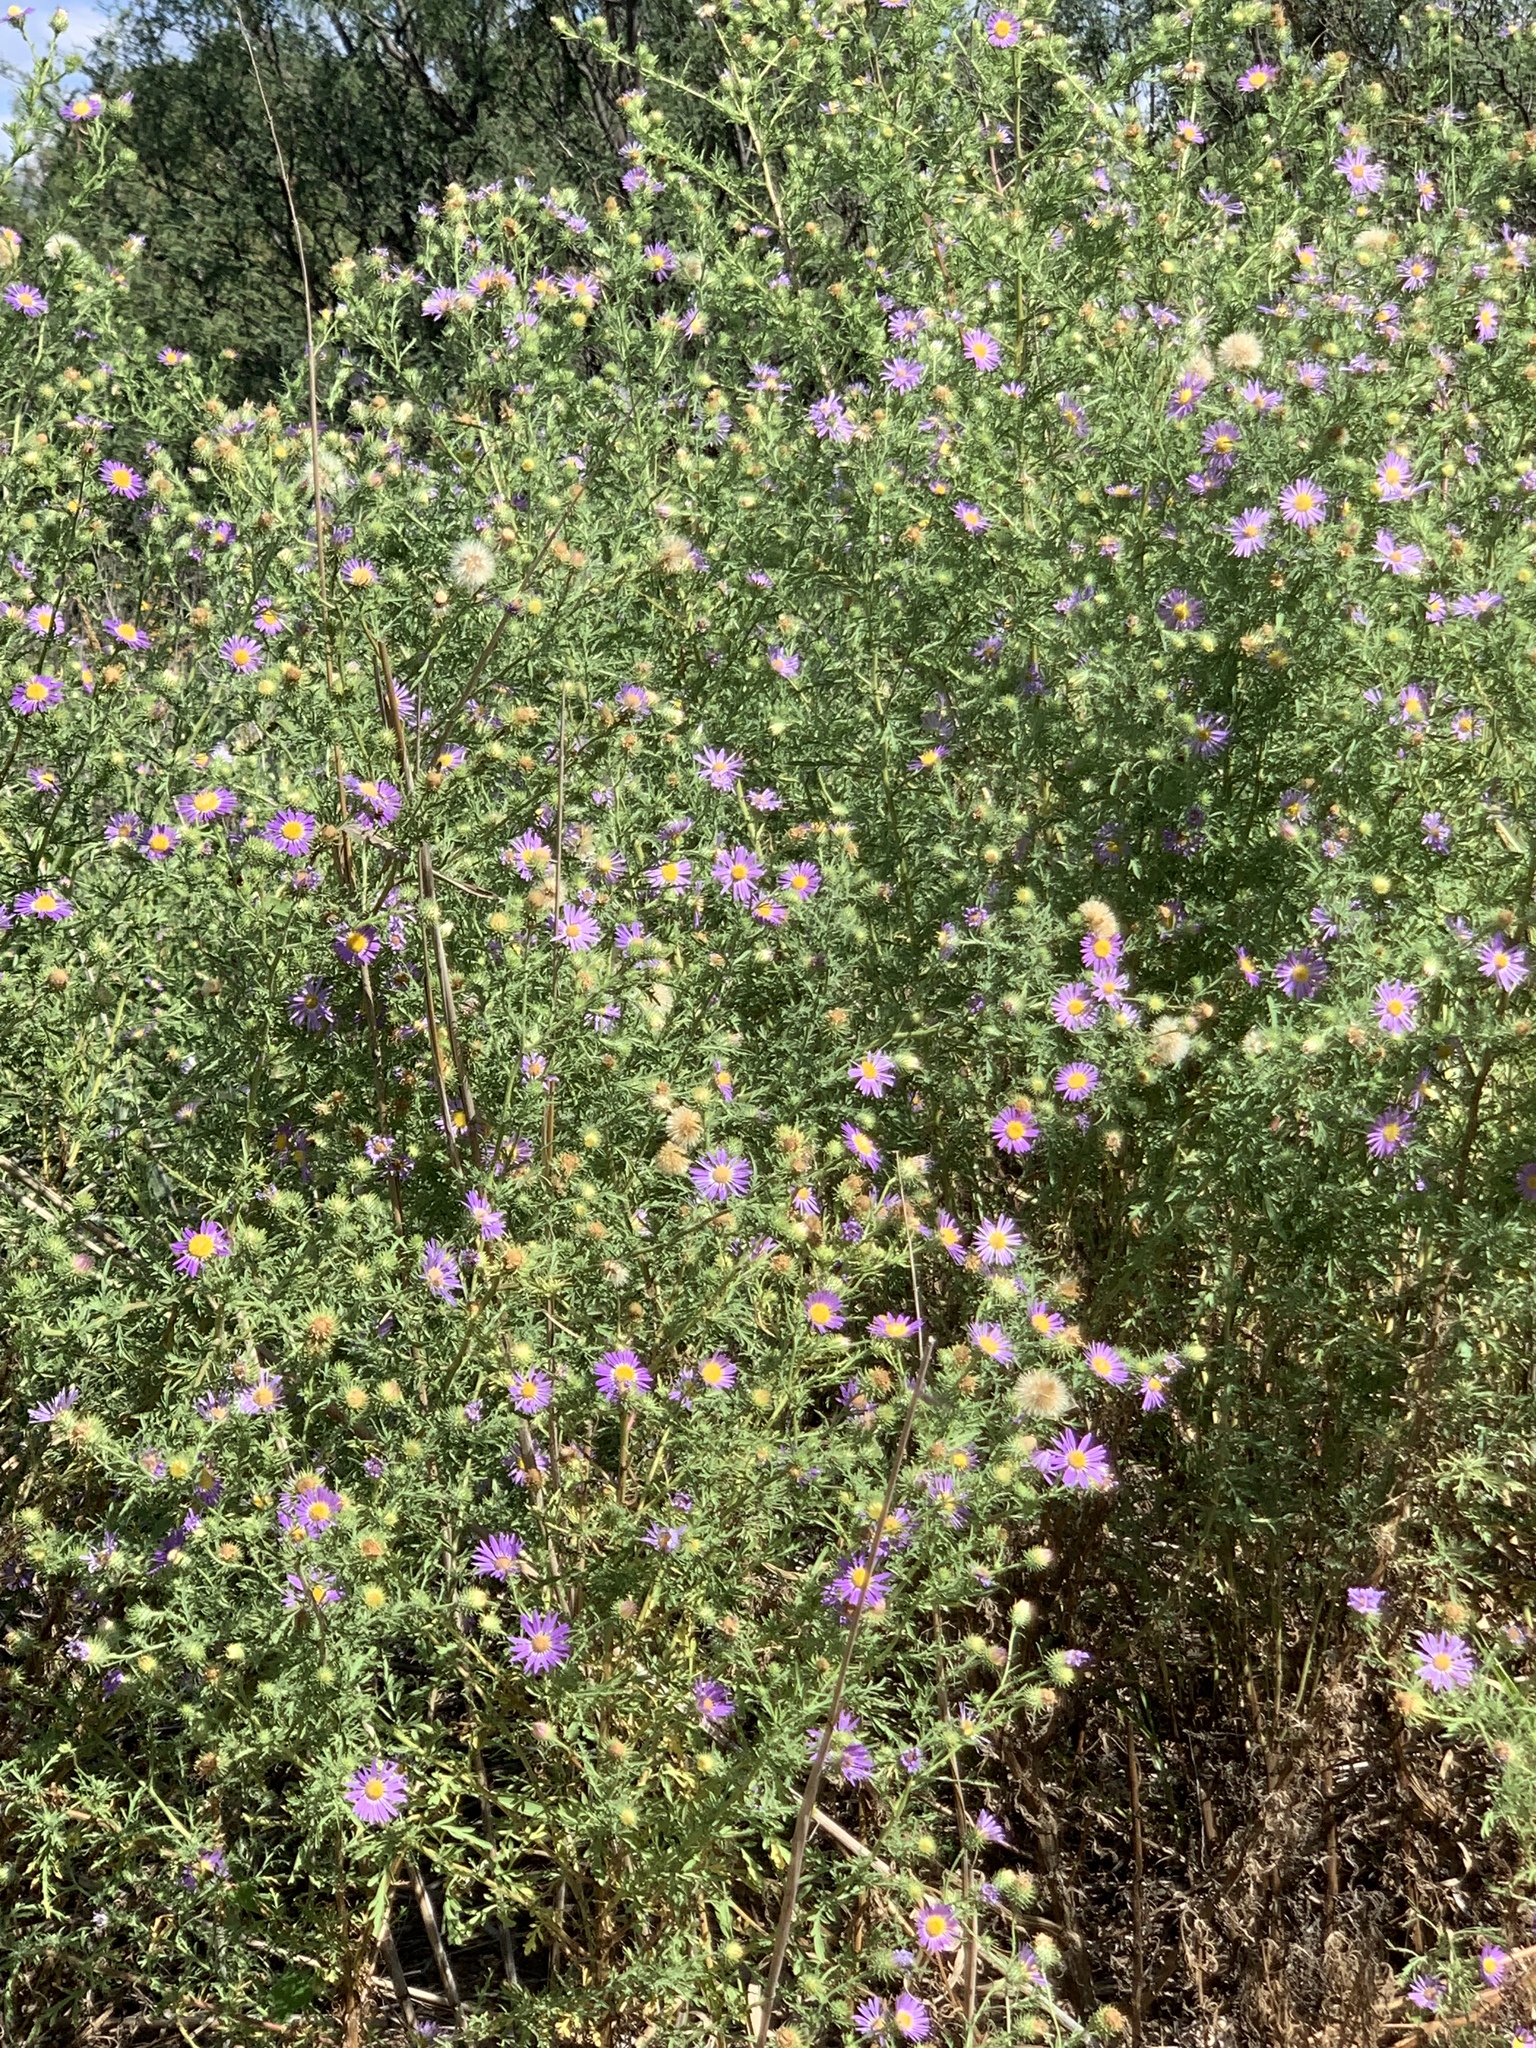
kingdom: Plantae
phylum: Tracheophyta
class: Magnoliopsida
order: Asterales
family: Asteraceae
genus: Machaeranthera
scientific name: Machaeranthera tanacetifolia
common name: Tansy-aster
